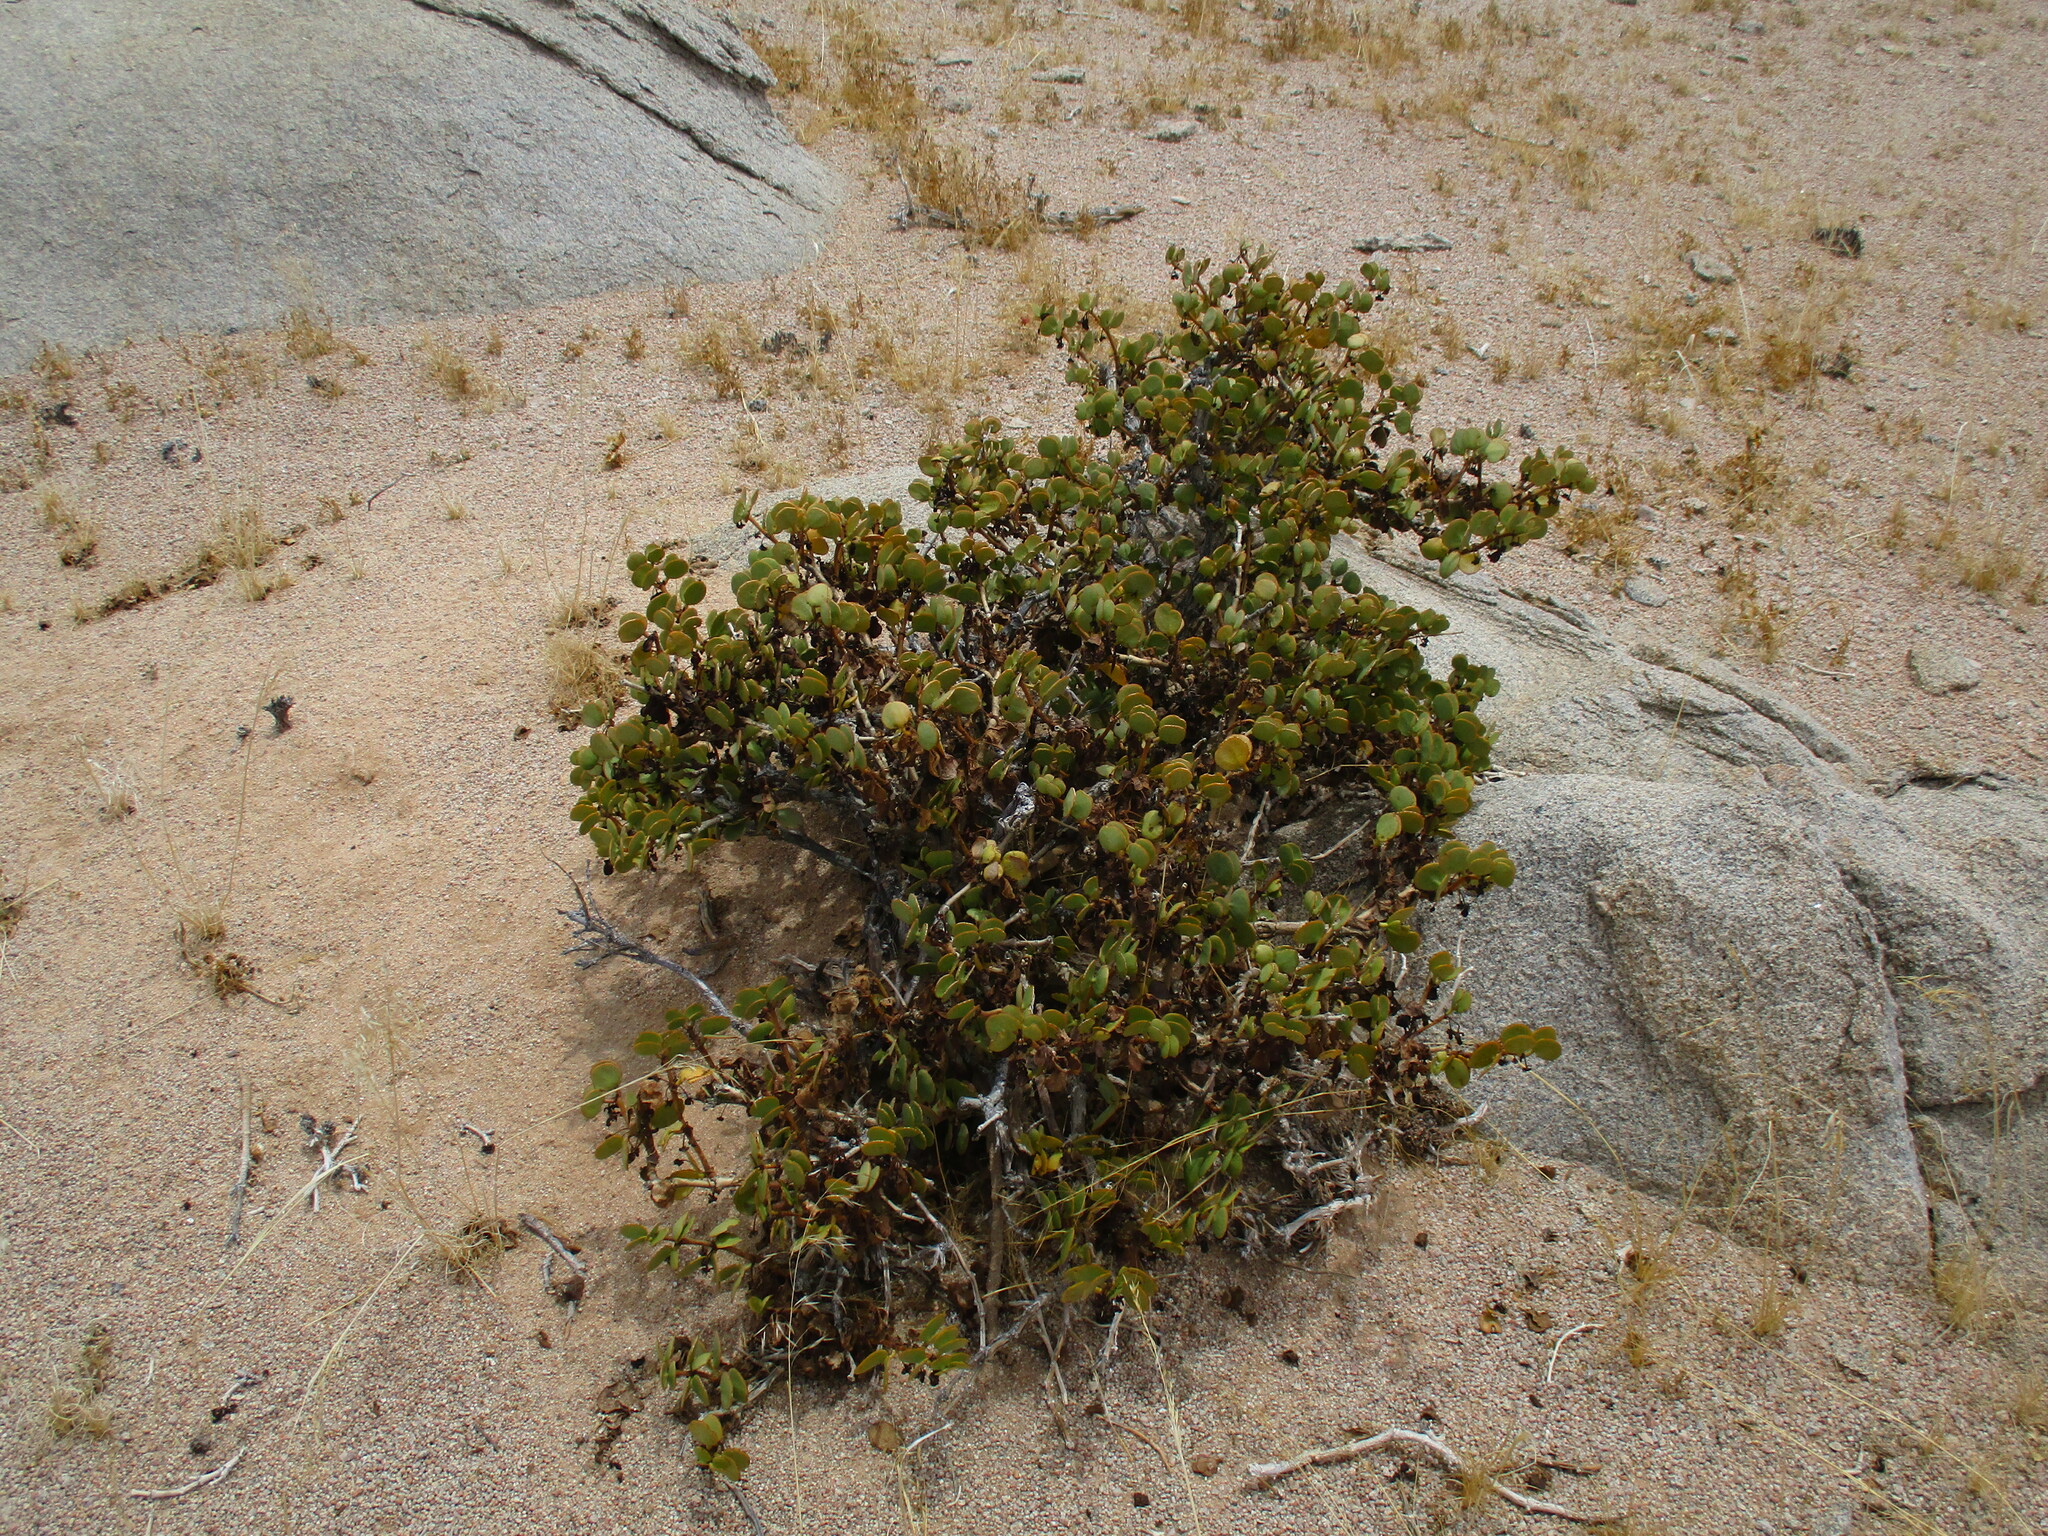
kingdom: Plantae
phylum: Tracheophyta
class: Magnoliopsida
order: Zygophyllales
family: Zygophyllaceae
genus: Tetraena
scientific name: Tetraena stapfii
